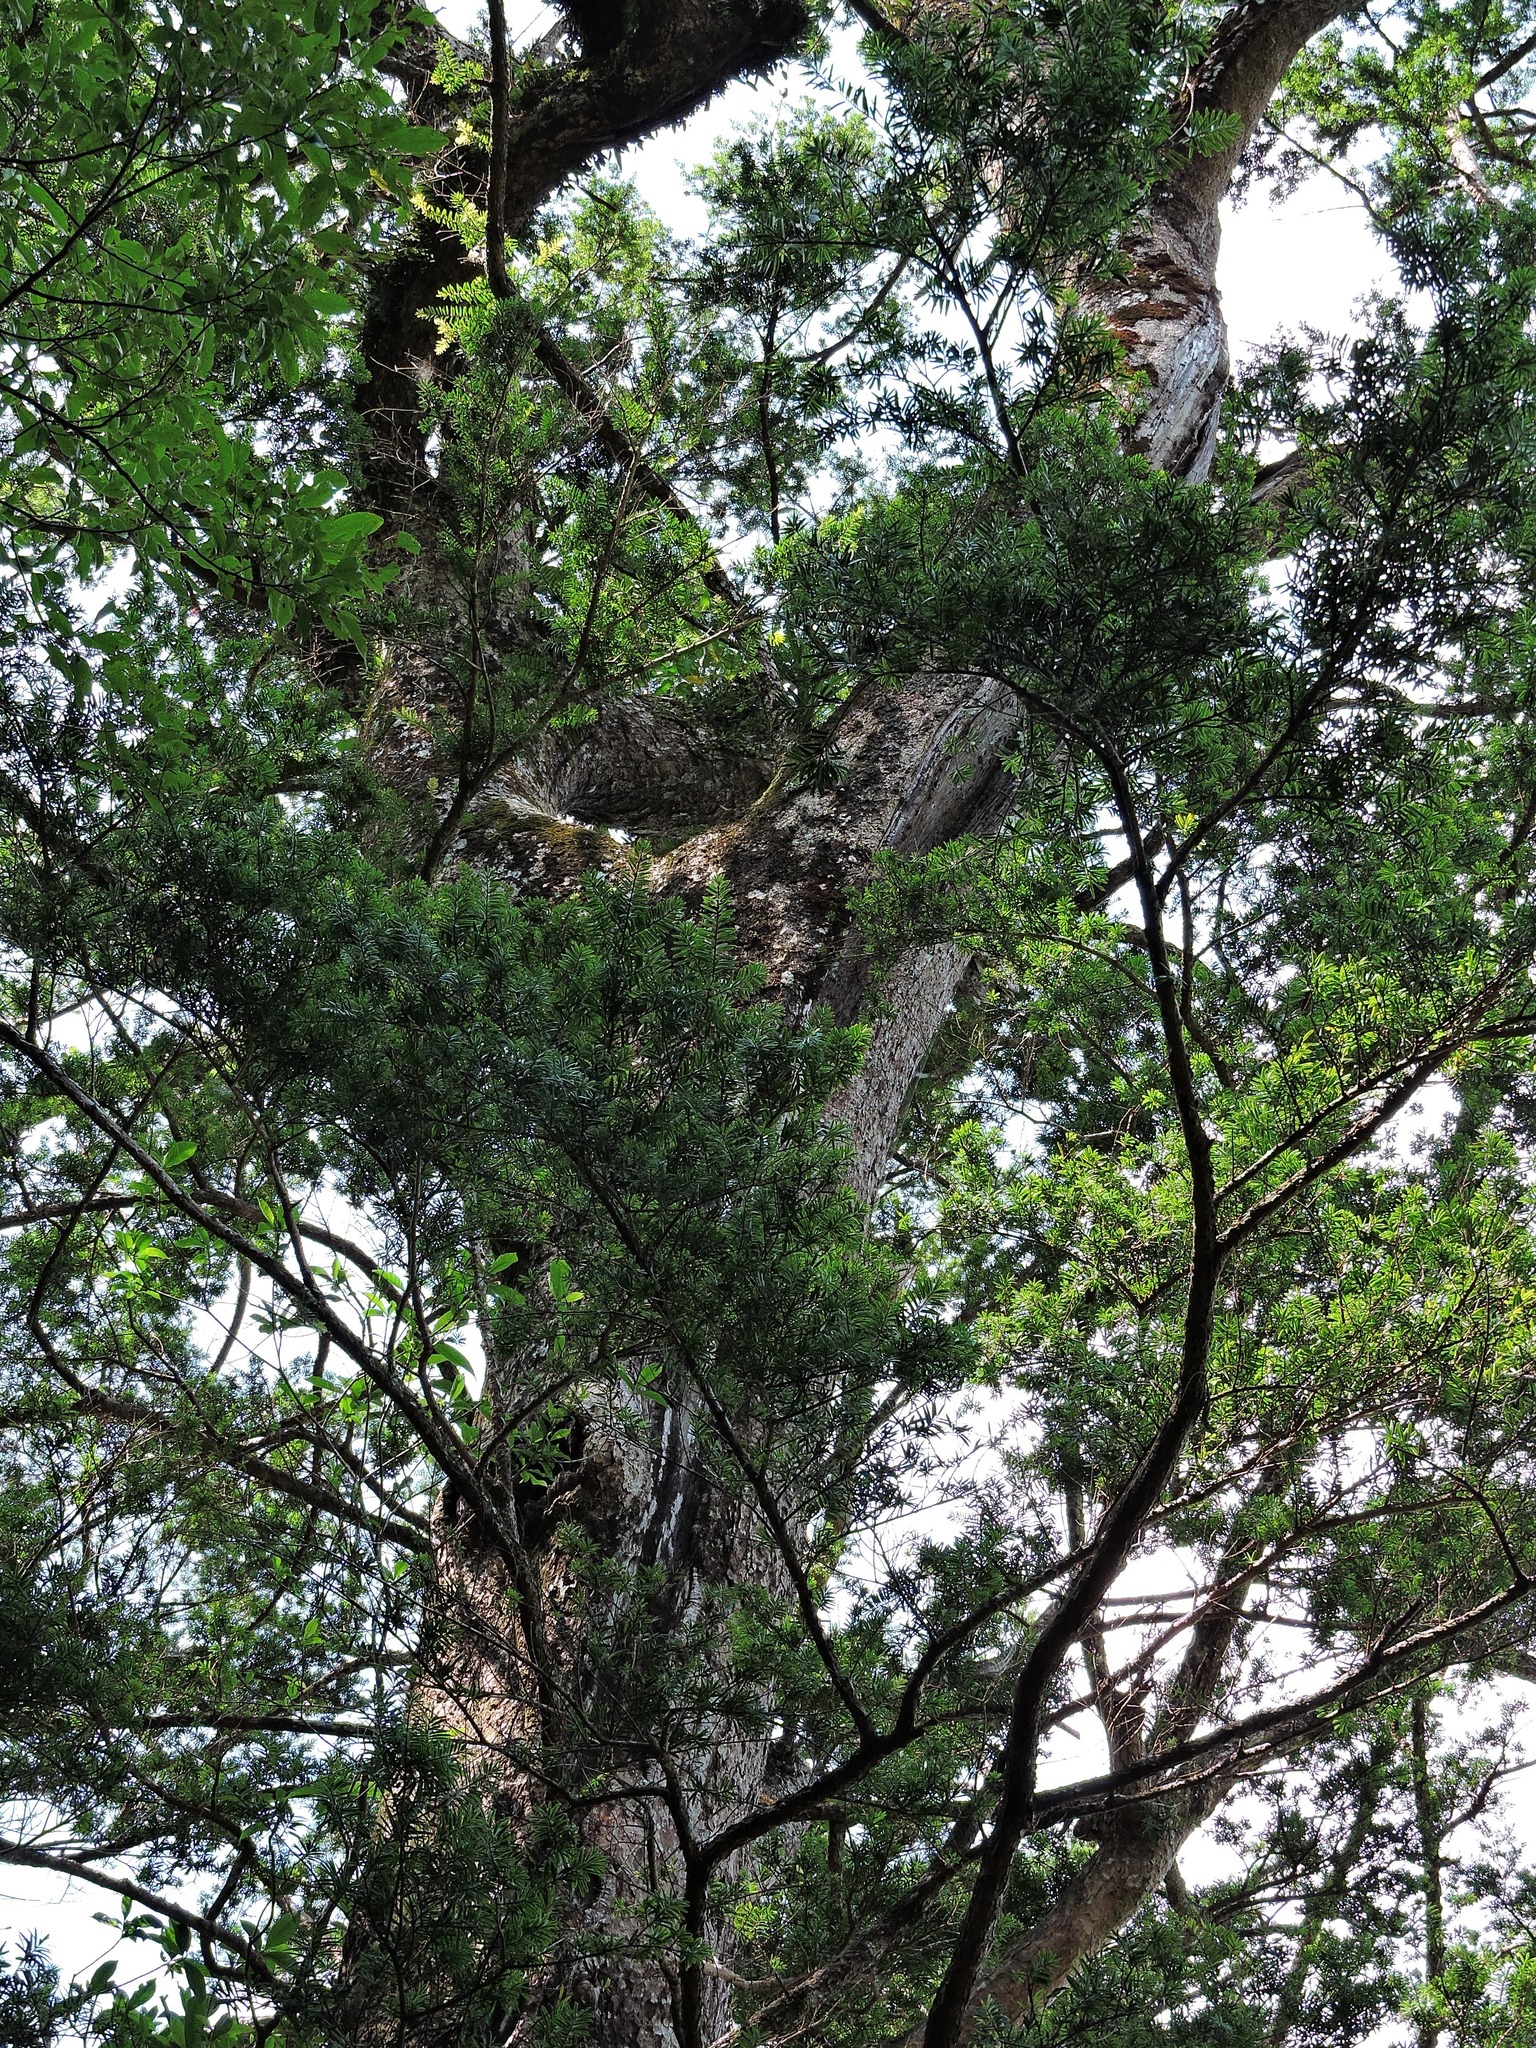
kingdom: Plantae
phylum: Tracheophyta
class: Pinopsida
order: Pinales
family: Pinaceae
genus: Keteleeria
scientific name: Keteleeria davidiana
